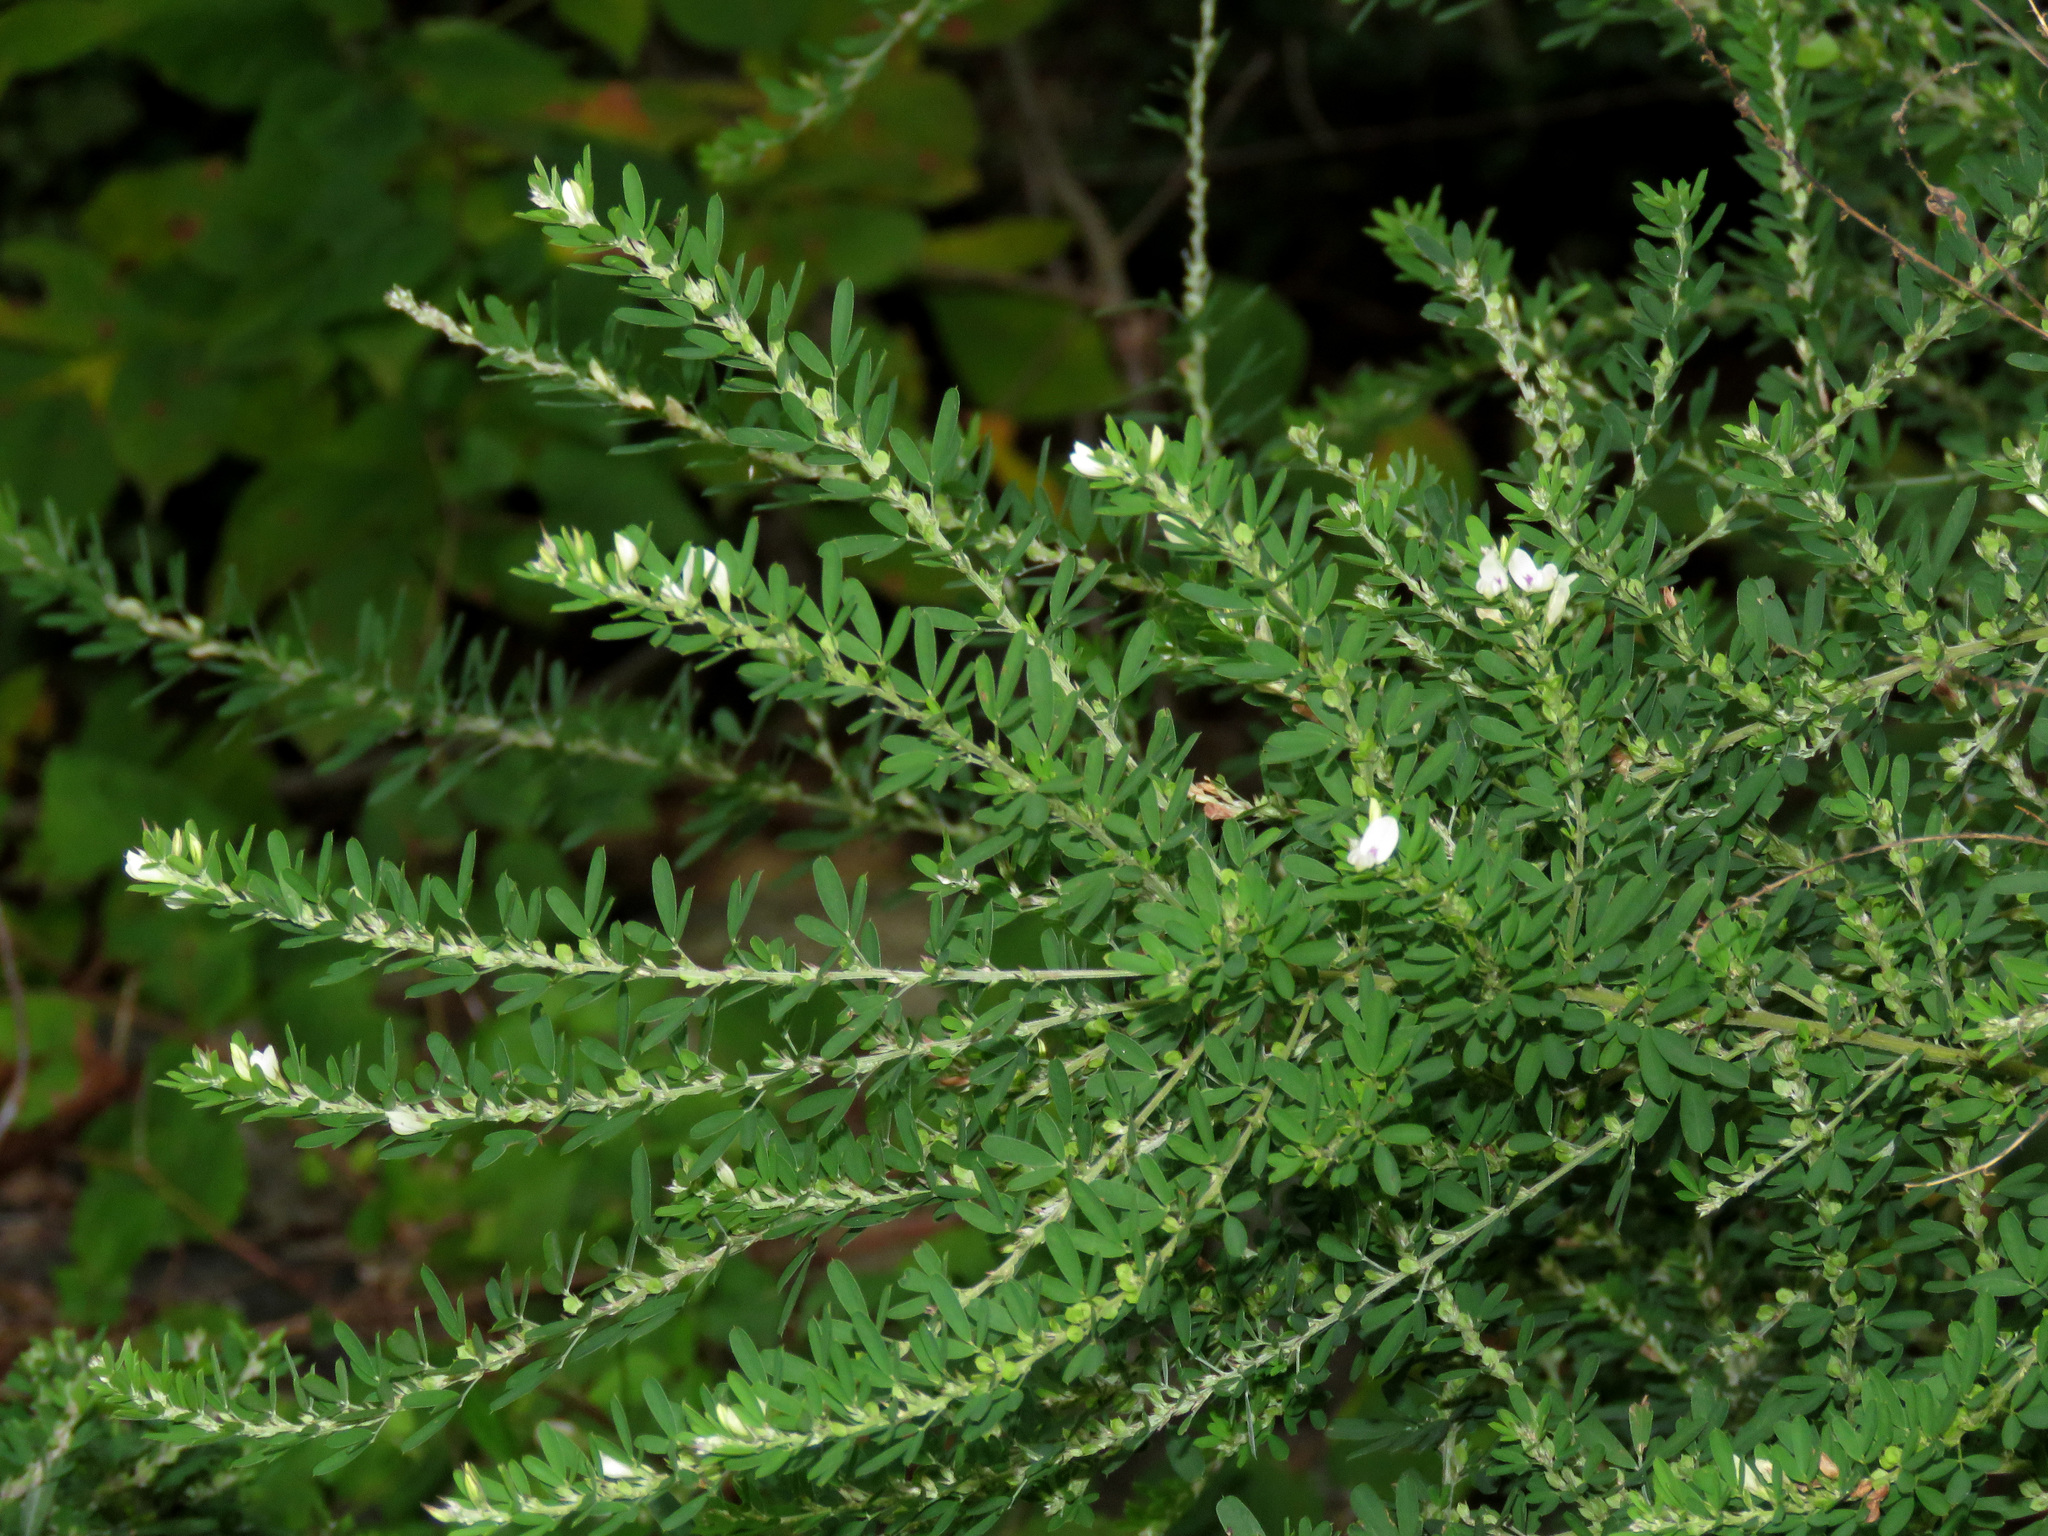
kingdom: Plantae
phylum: Tracheophyta
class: Magnoliopsida
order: Fabales
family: Fabaceae
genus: Lespedeza
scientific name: Lespedeza cuneata
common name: Chinese bush-clover
